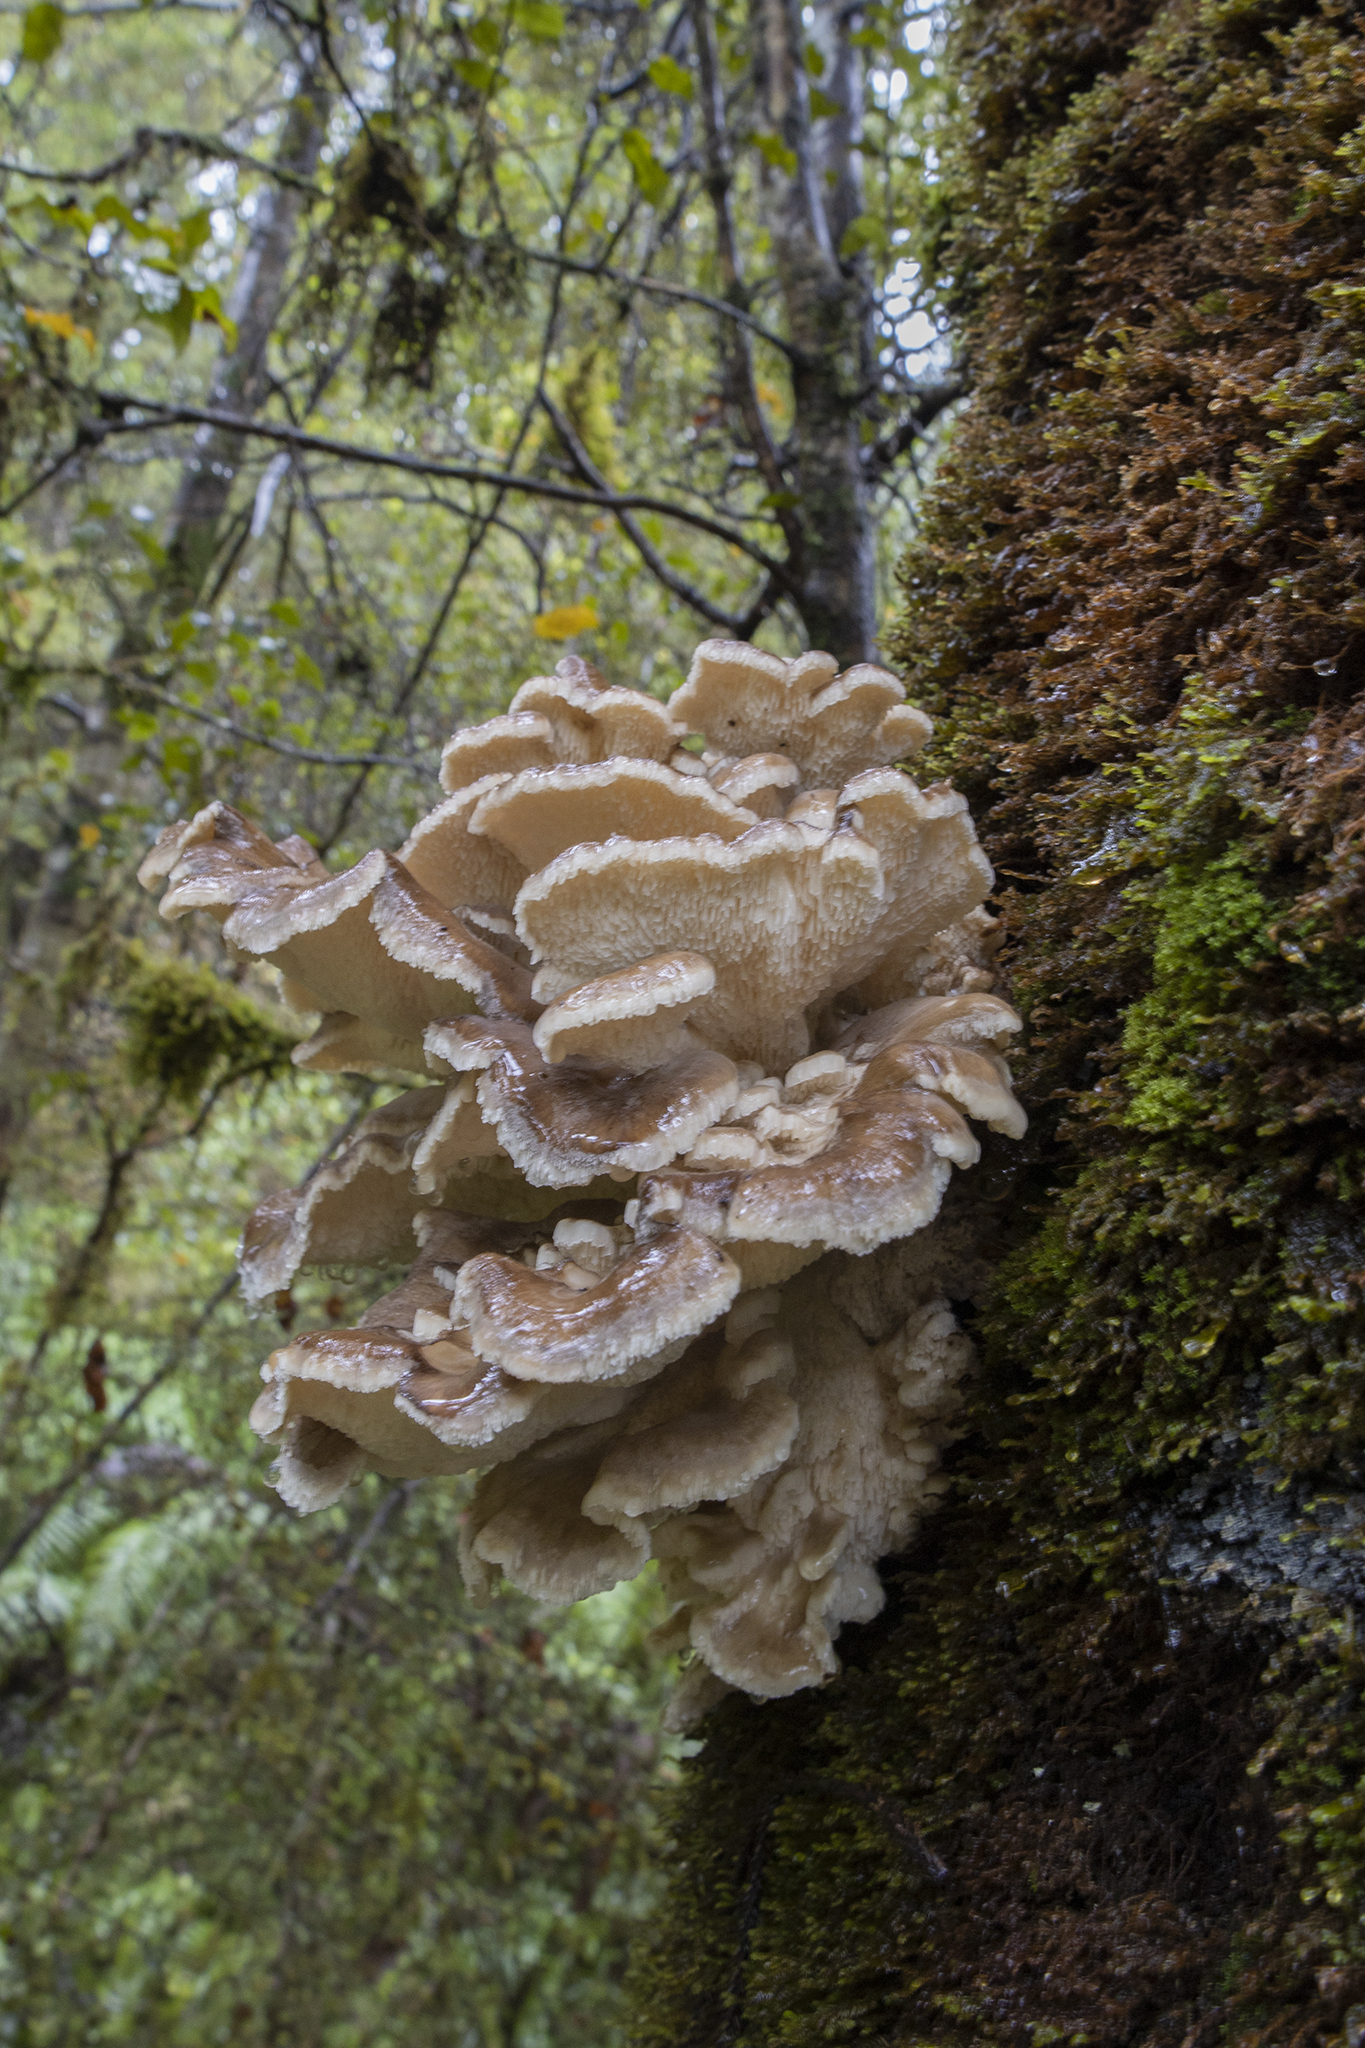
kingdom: Fungi
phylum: Basidiomycota
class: Agaricomycetes
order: Polyporales
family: Grifolaceae
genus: Grifola
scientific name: Grifola
